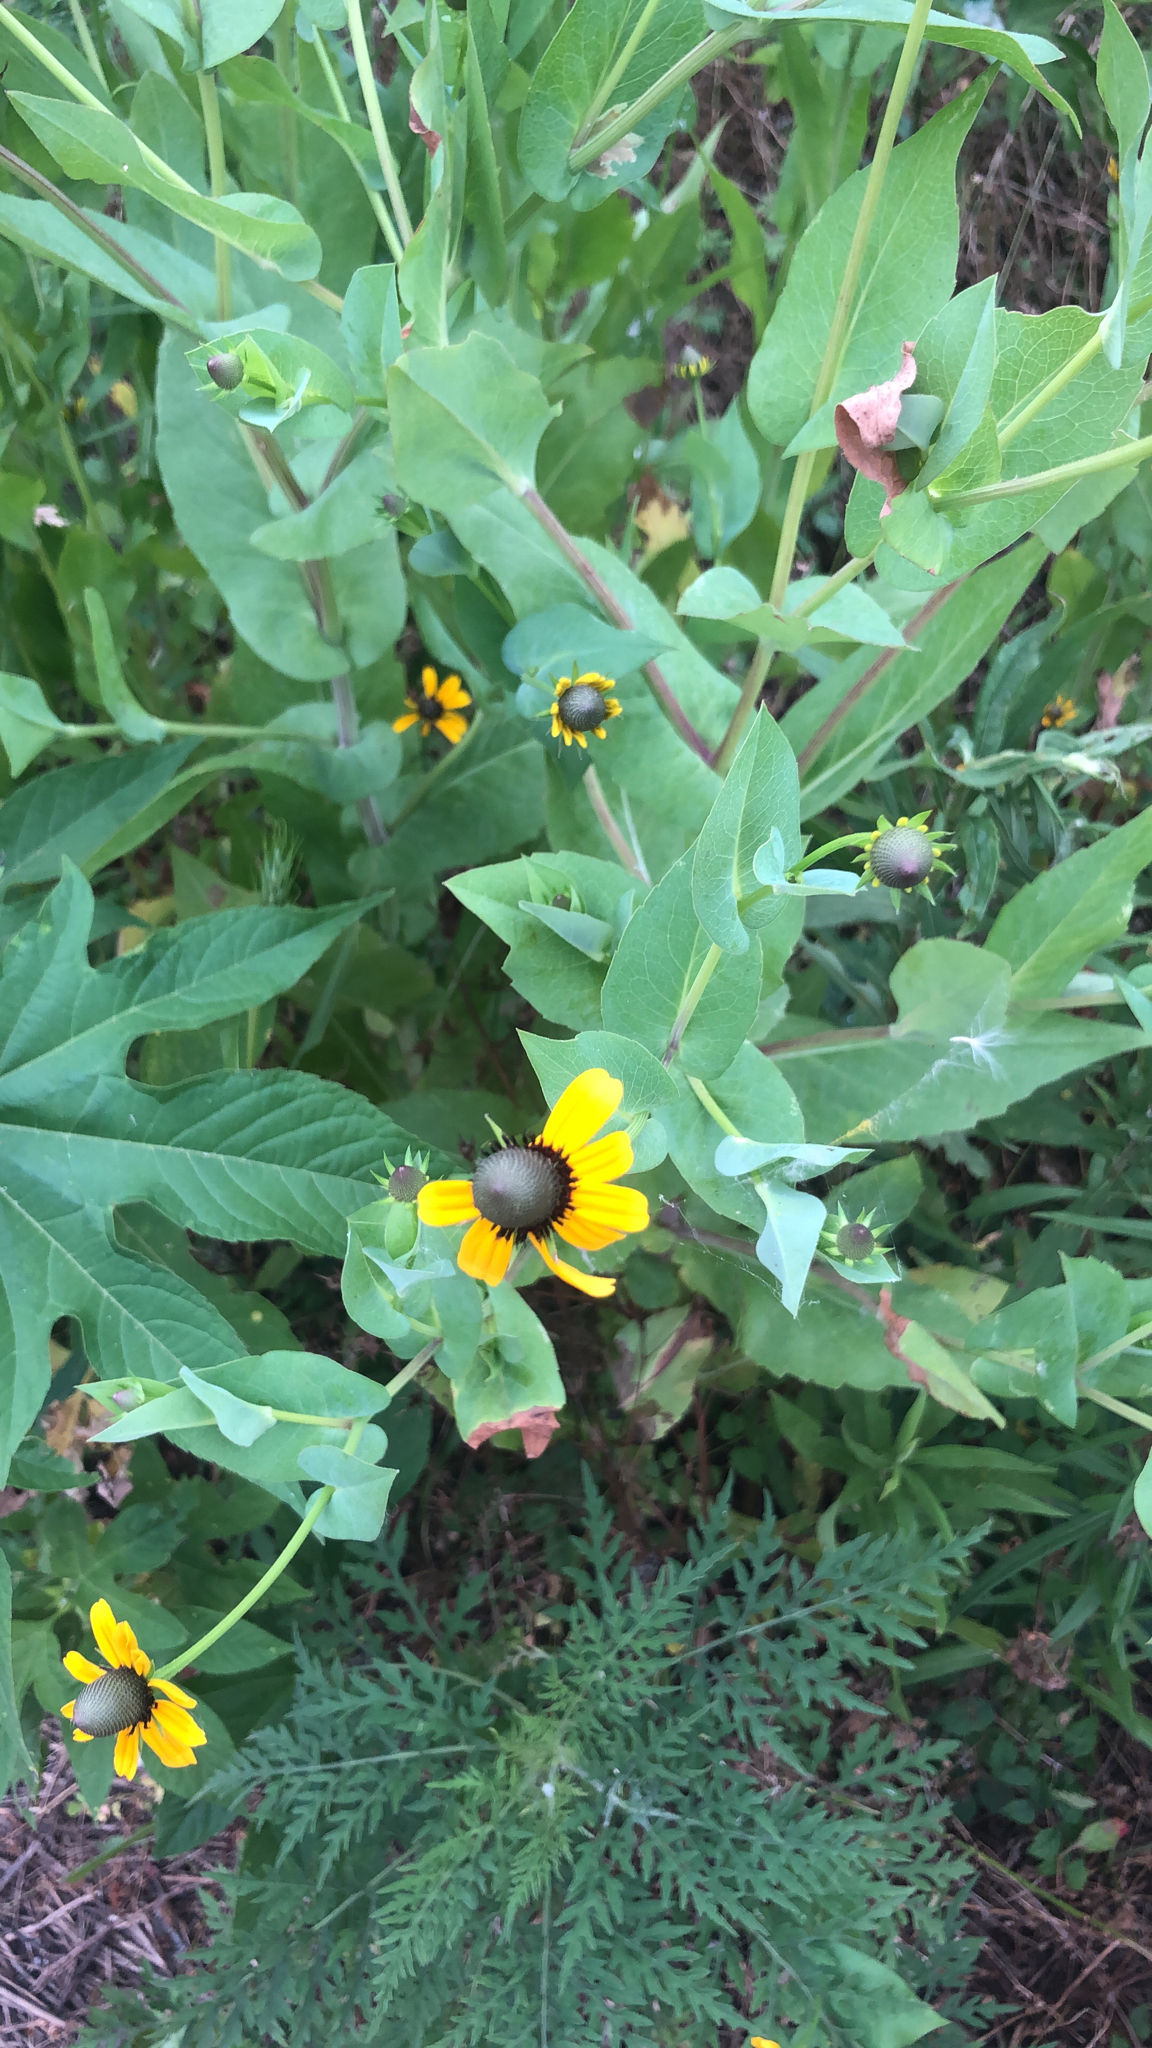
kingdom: Plantae
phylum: Tracheophyta
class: Magnoliopsida
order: Asterales
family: Asteraceae
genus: Rudbeckia
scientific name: Rudbeckia amplexicaulis
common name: Clasping-leaf coneflower
